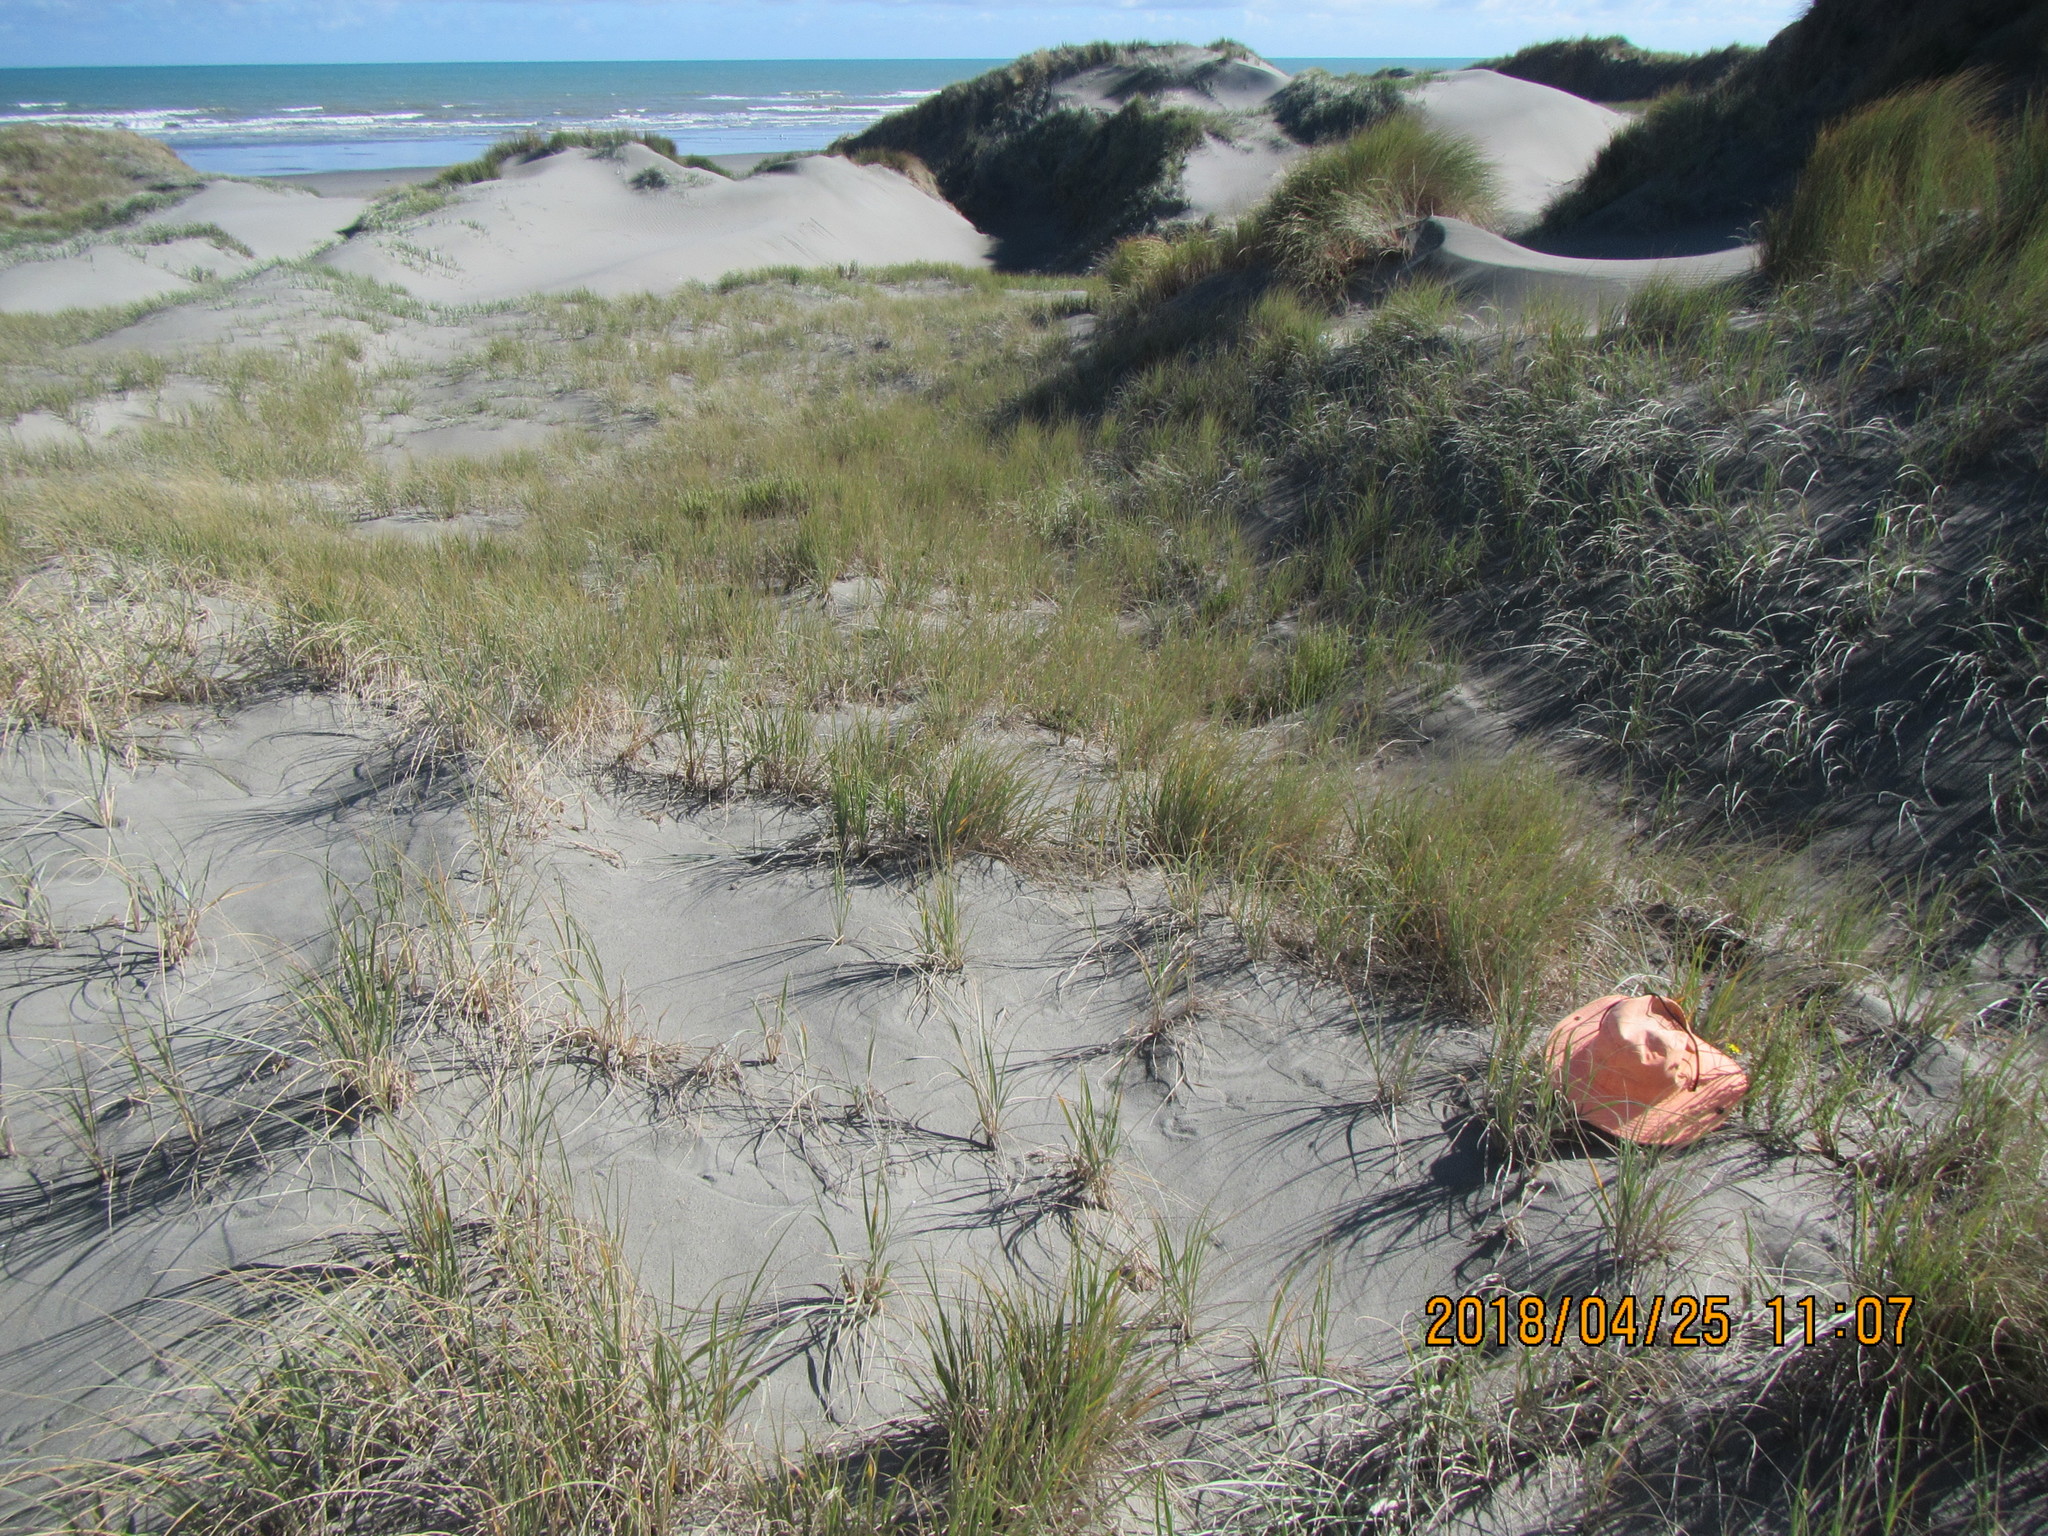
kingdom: Plantae
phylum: Tracheophyta
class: Magnoliopsida
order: Asterales
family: Asteraceae
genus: Hypochaeris
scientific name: Hypochaeris radicata
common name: Flatweed
